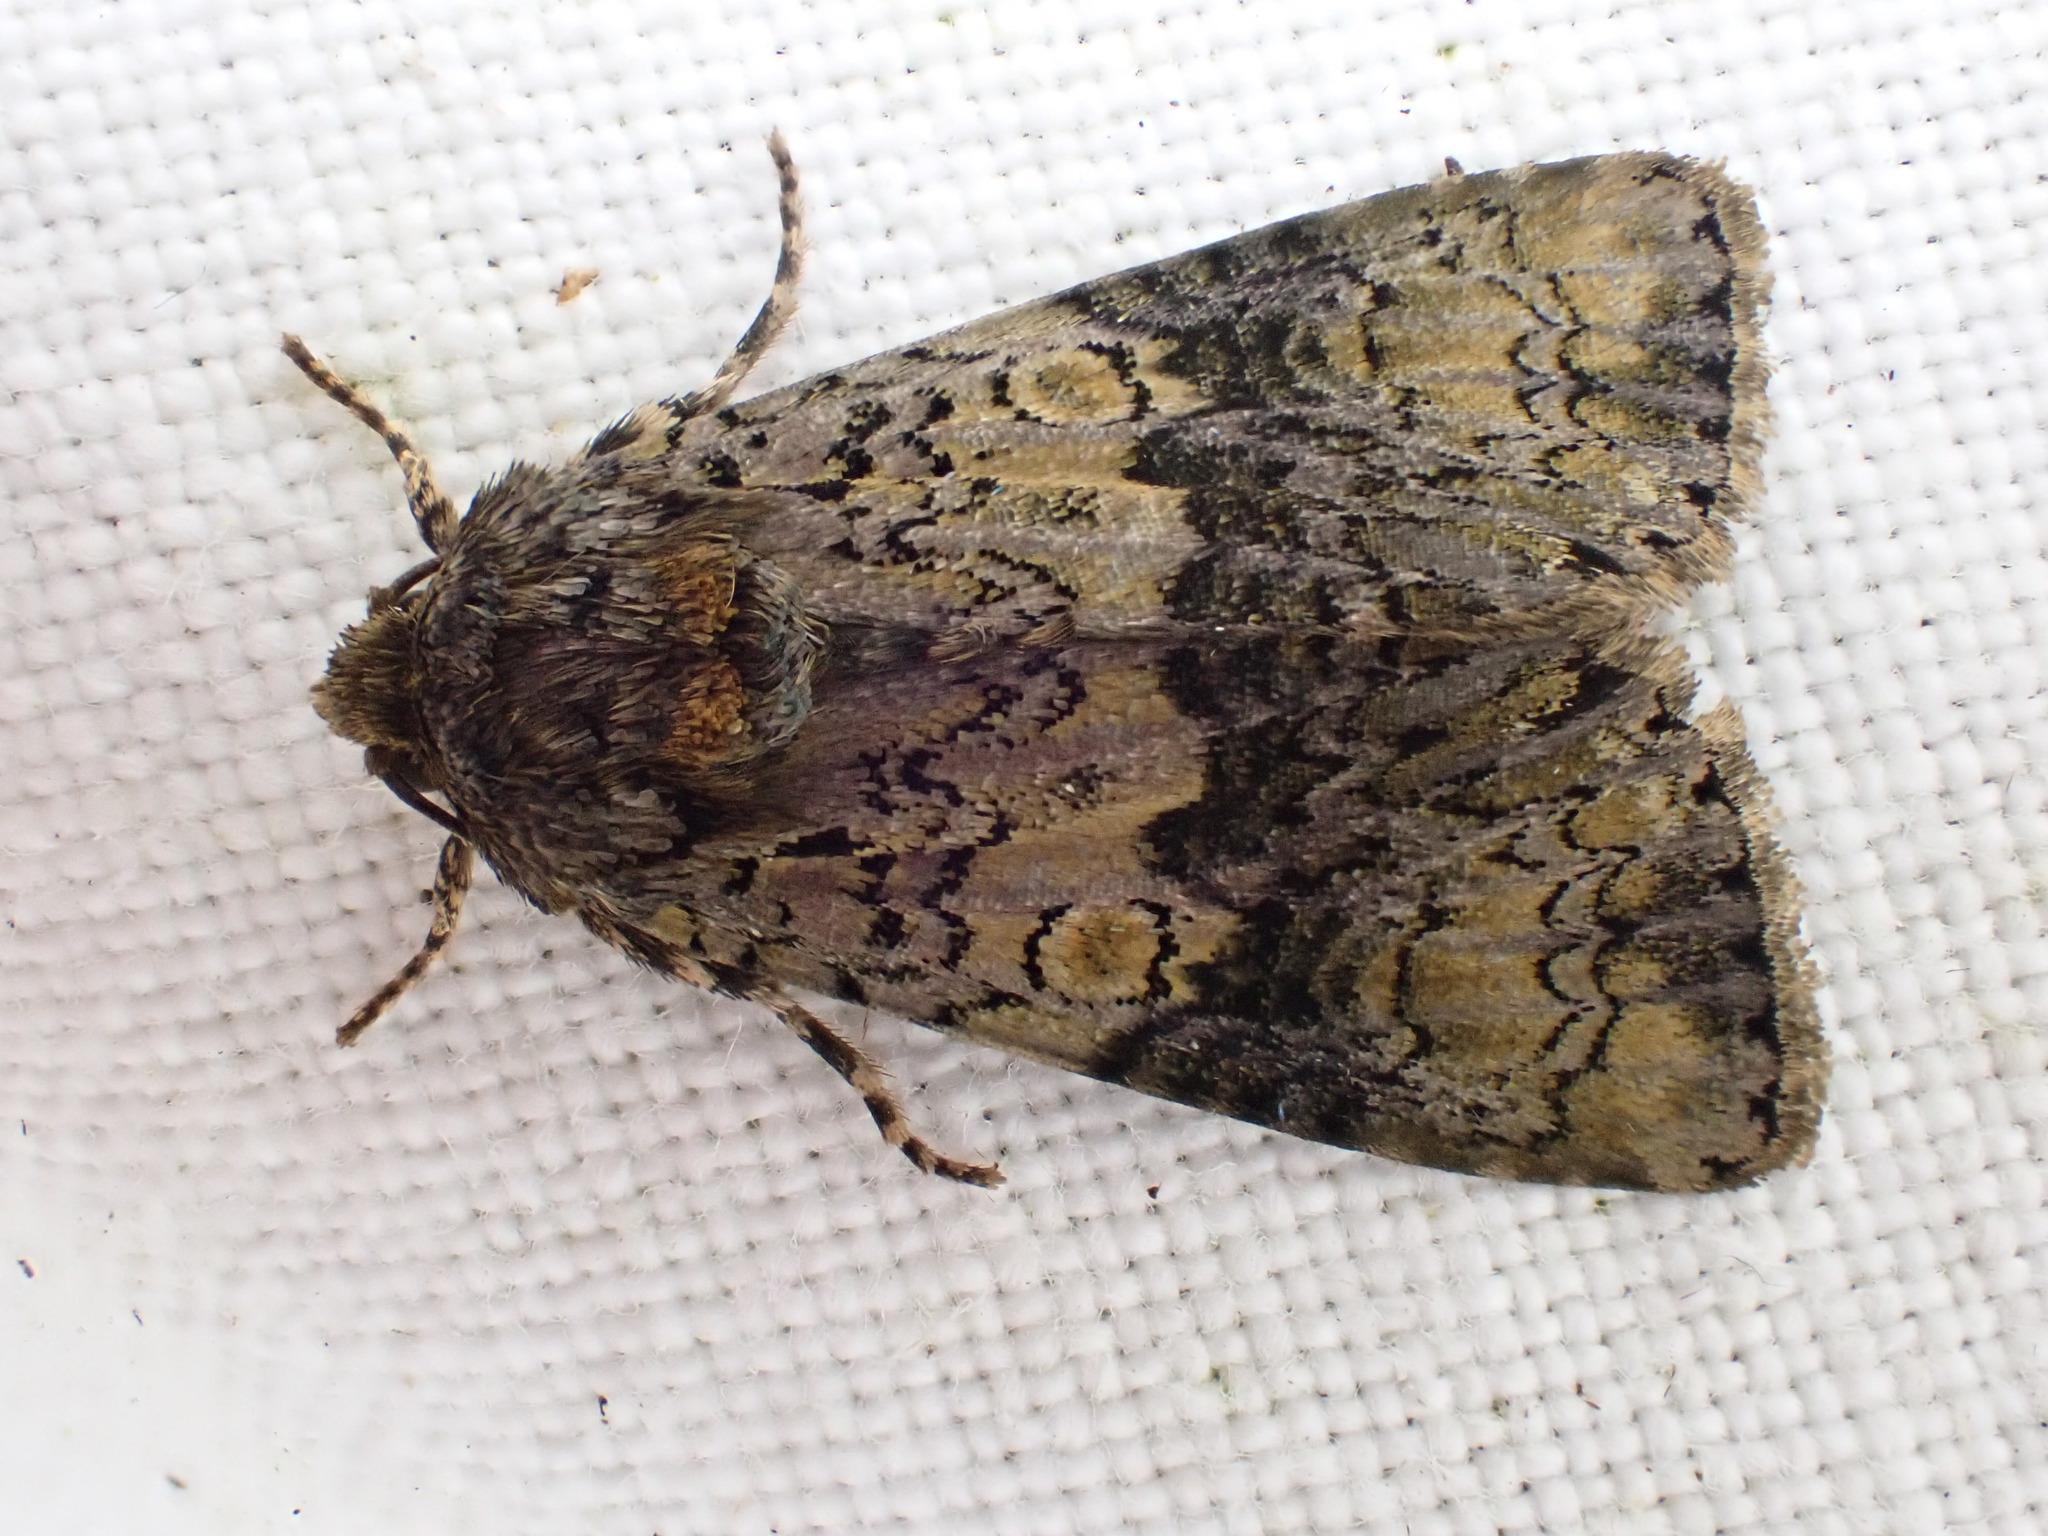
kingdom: Animalia
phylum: Arthropoda
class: Insecta
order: Lepidoptera
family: Noctuidae
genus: Craniophora
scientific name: Craniophora ligustri
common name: Coronet
